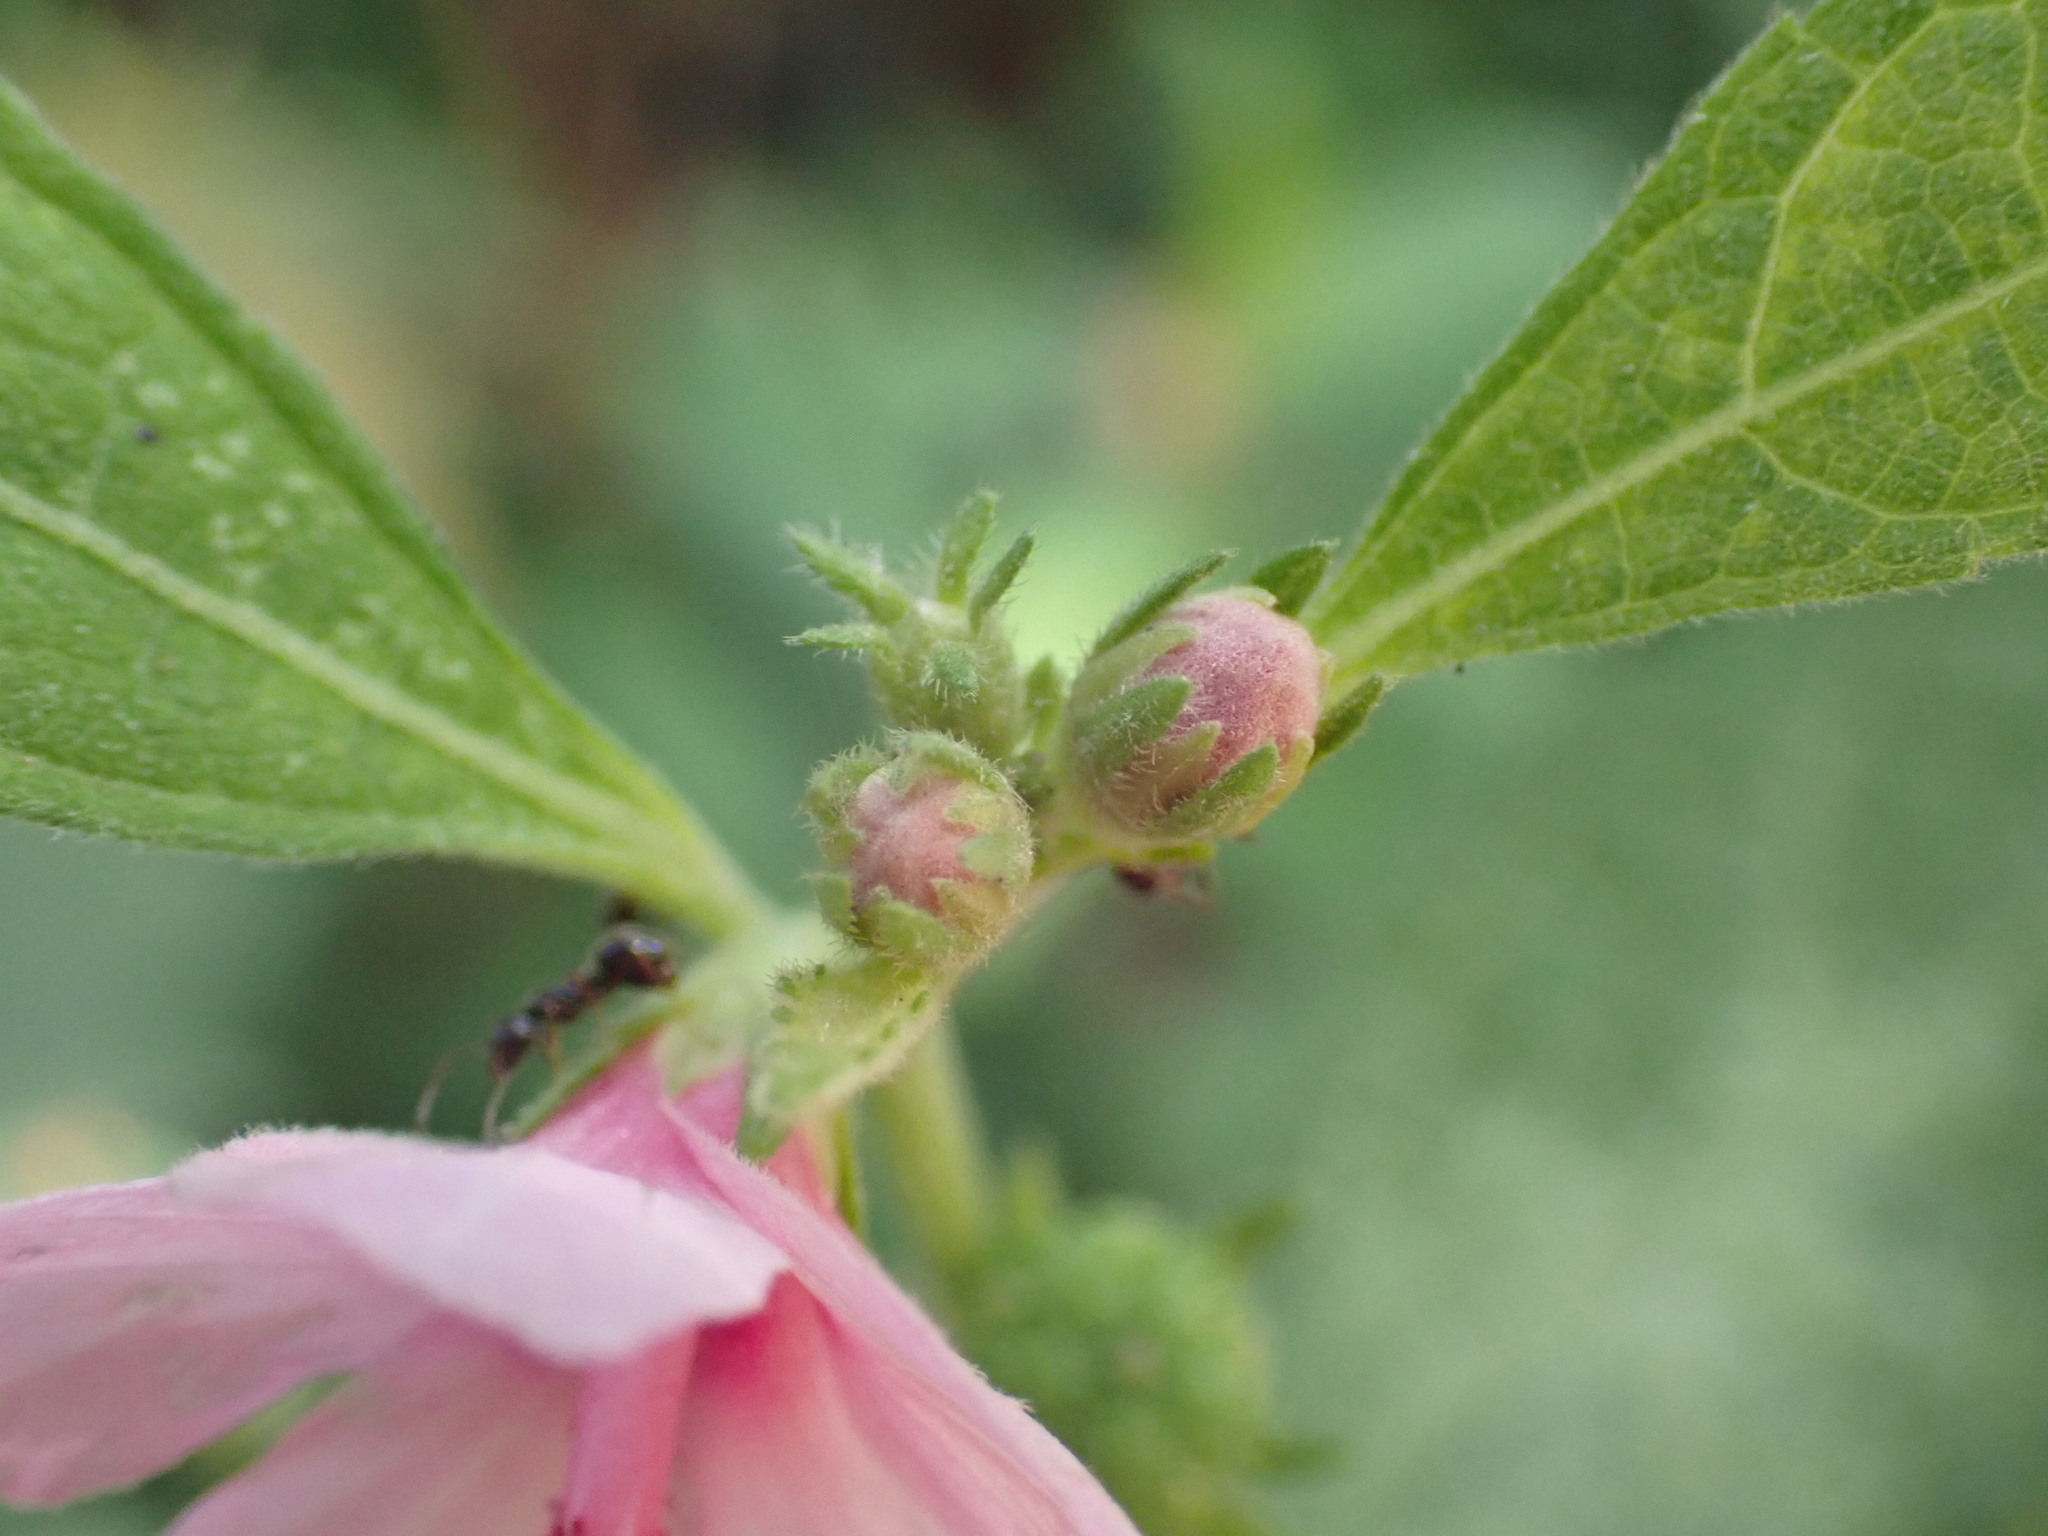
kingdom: Plantae
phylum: Tracheophyta
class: Magnoliopsida
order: Malvales
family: Malvaceae
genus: Urena
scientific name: Urena lobata
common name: Caesarweed
